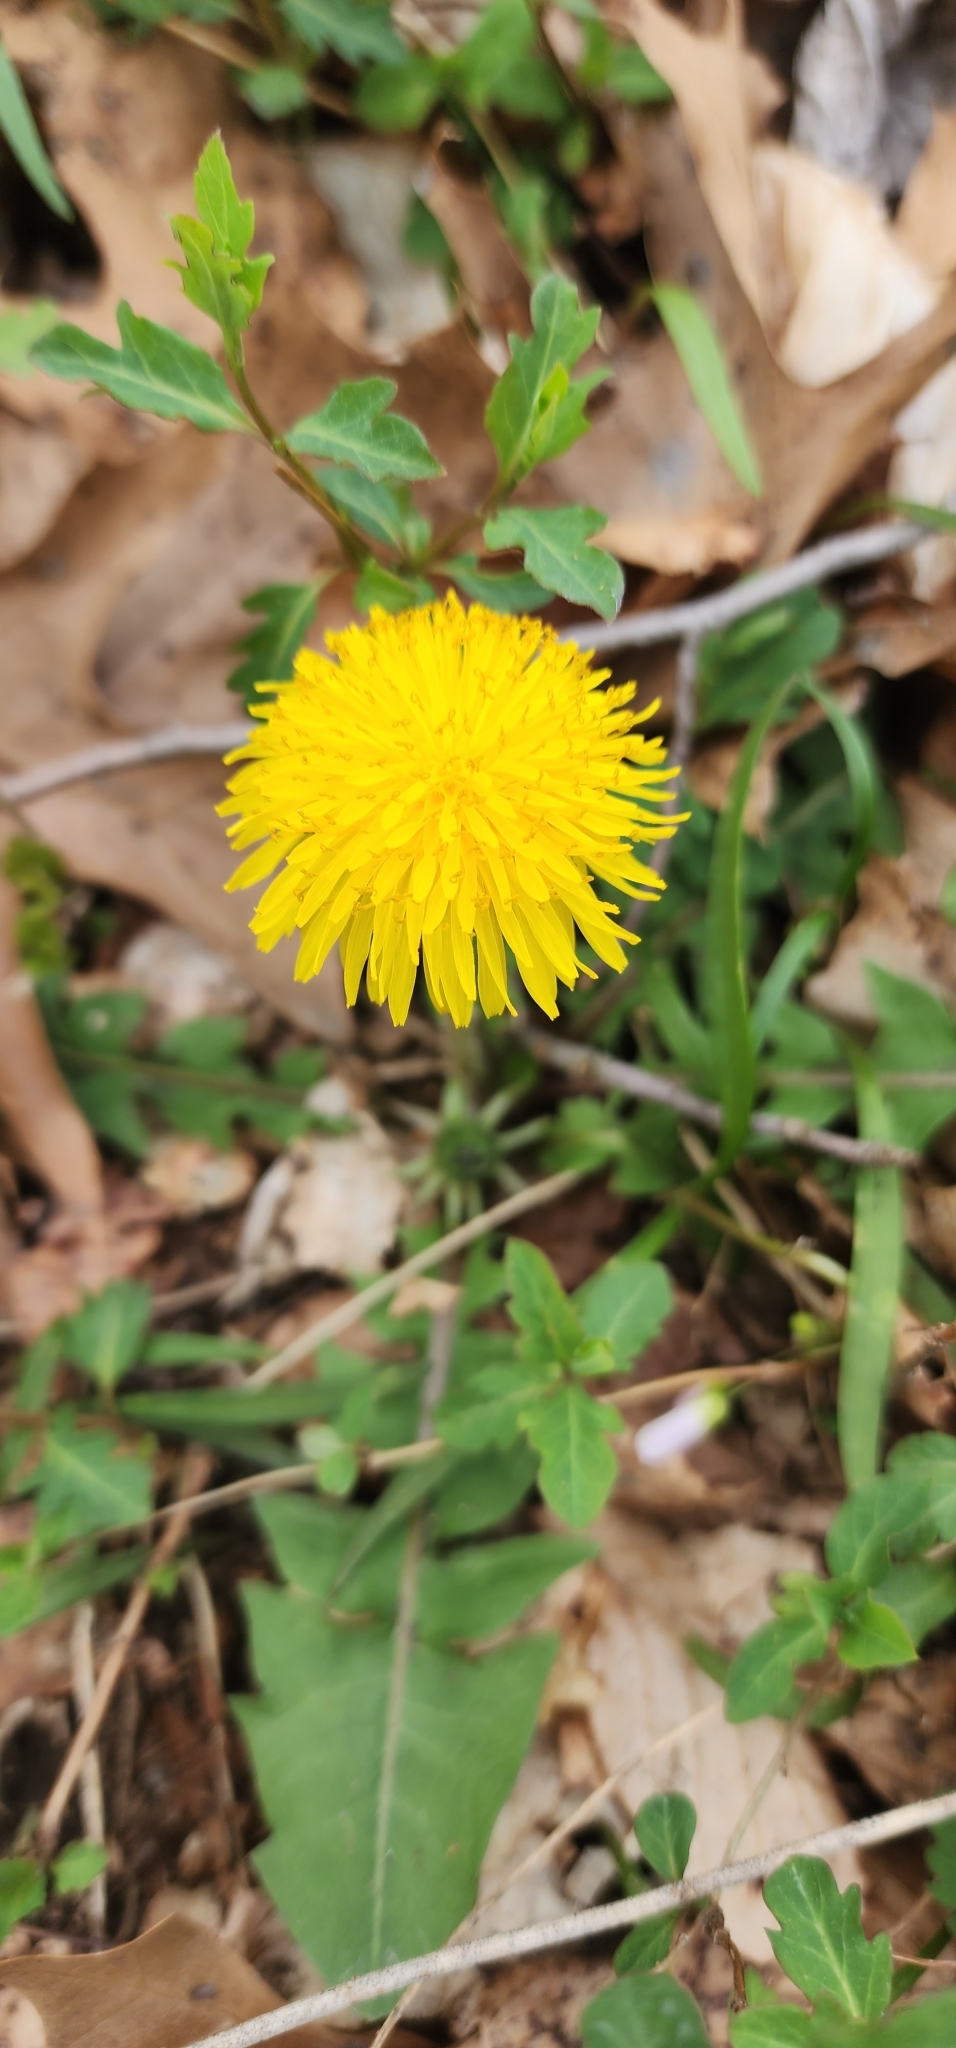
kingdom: Plantae
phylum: Tracheophyta
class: Magnoliopsida
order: Asterales
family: Asteraceae
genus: Taraxacum
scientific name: Taraxacum officinale
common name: Common dandelion
